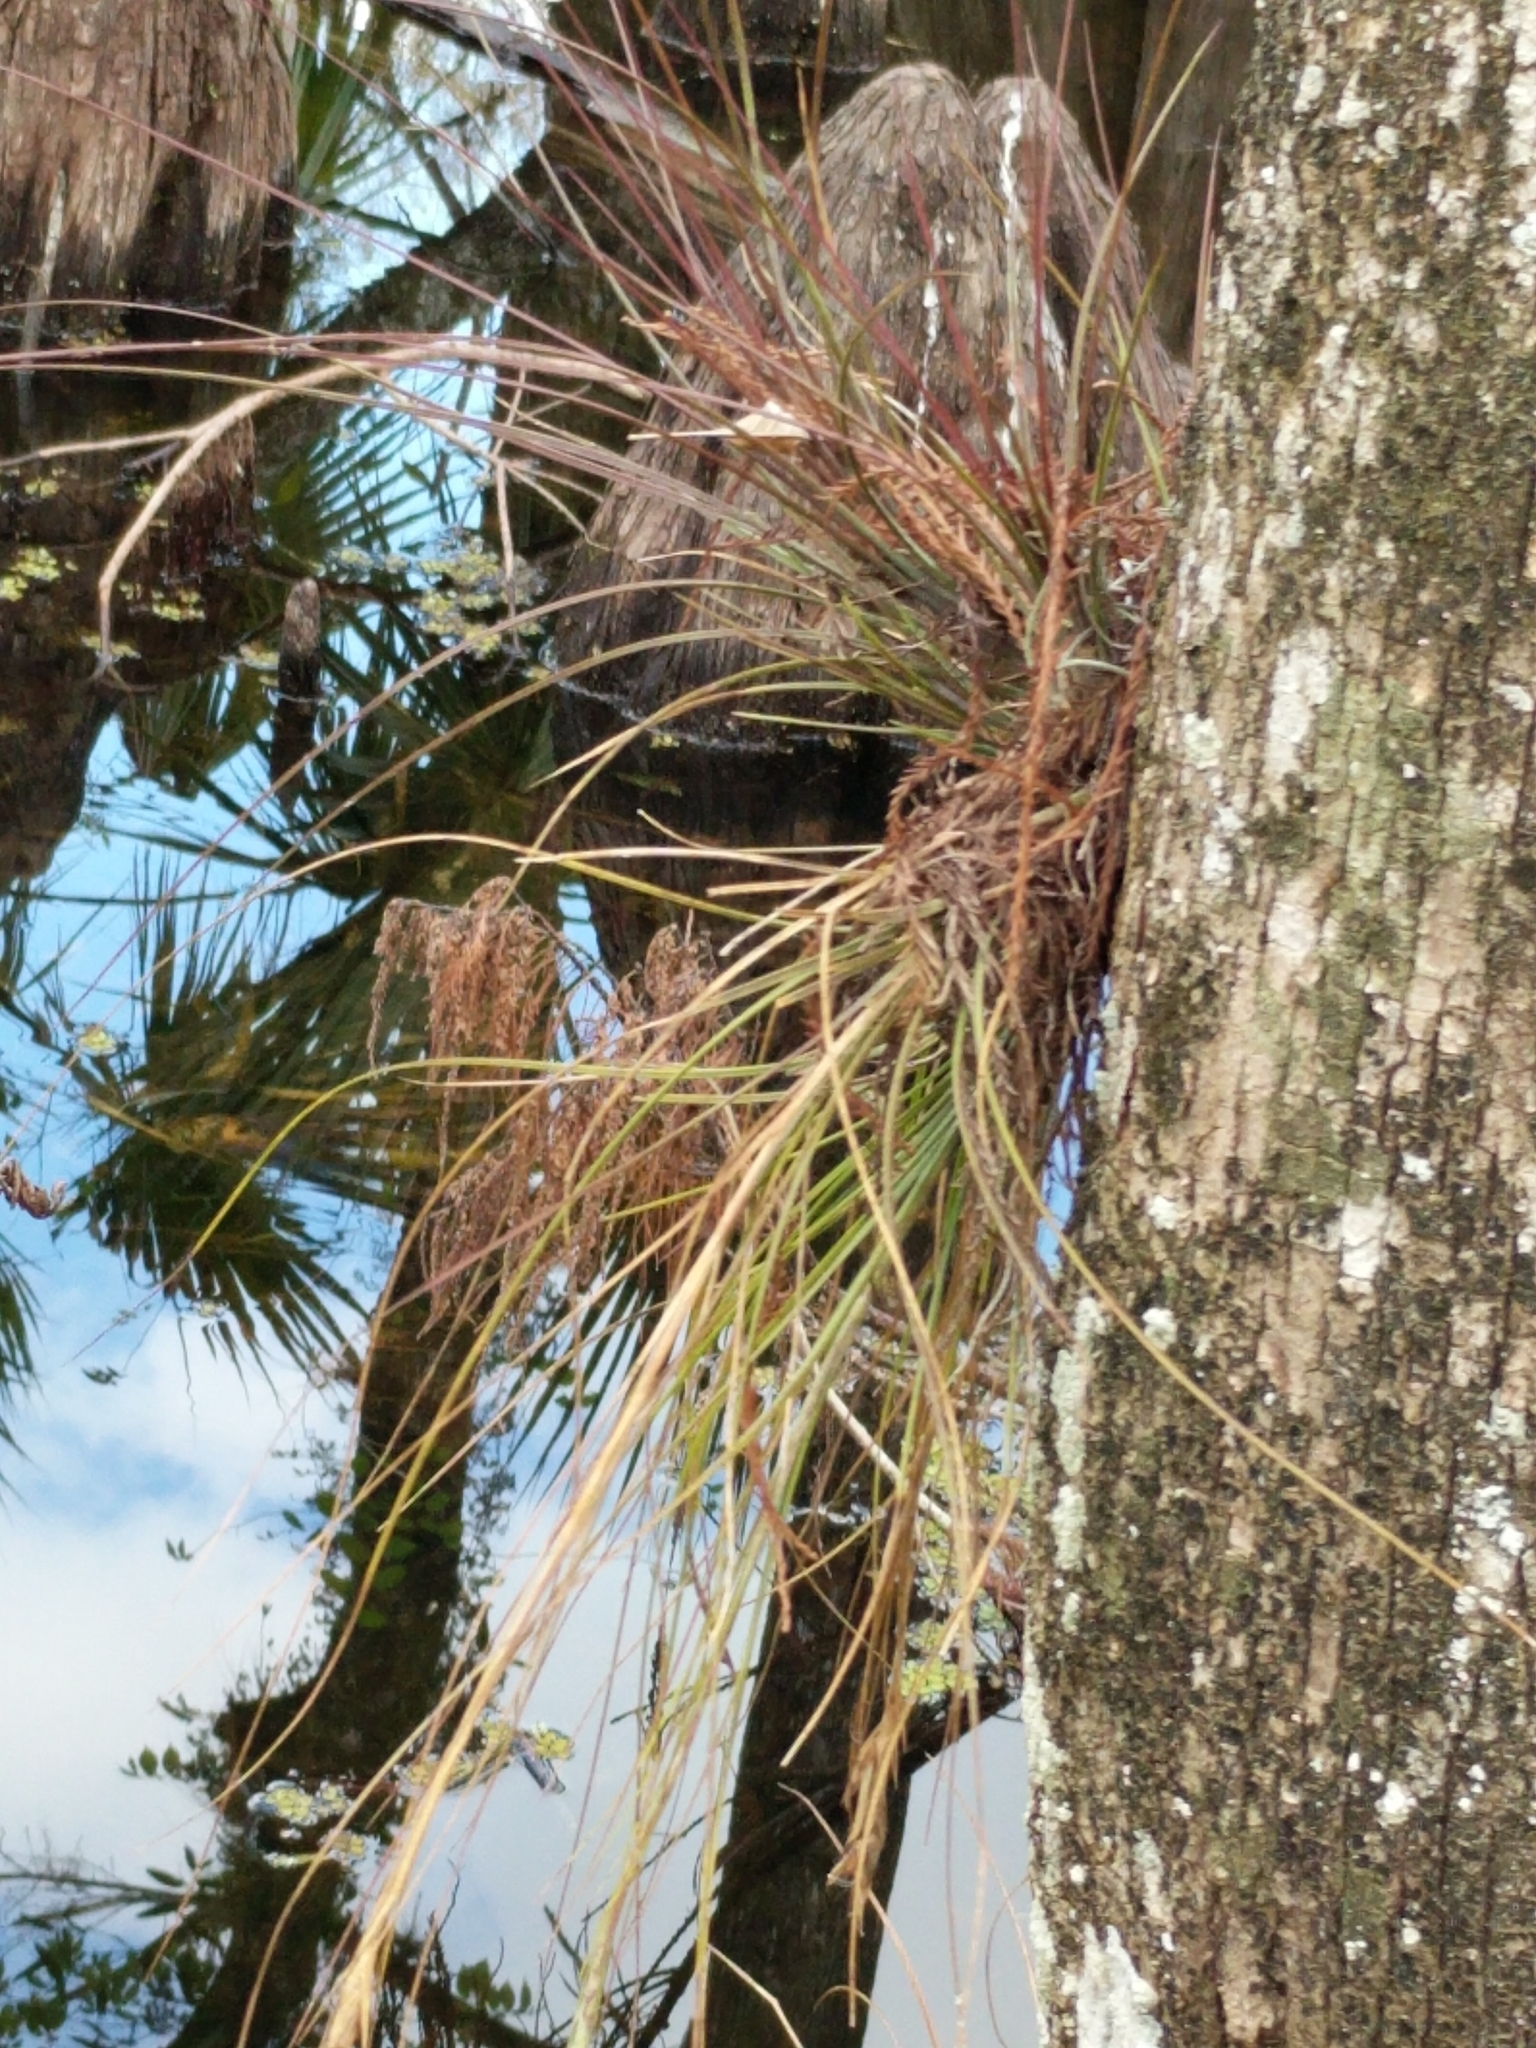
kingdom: Plantae
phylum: Tracheophyta
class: Liliopsida
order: Poales
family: Bromeliaceae
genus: Tillandsia
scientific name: Tillandsia setacea
